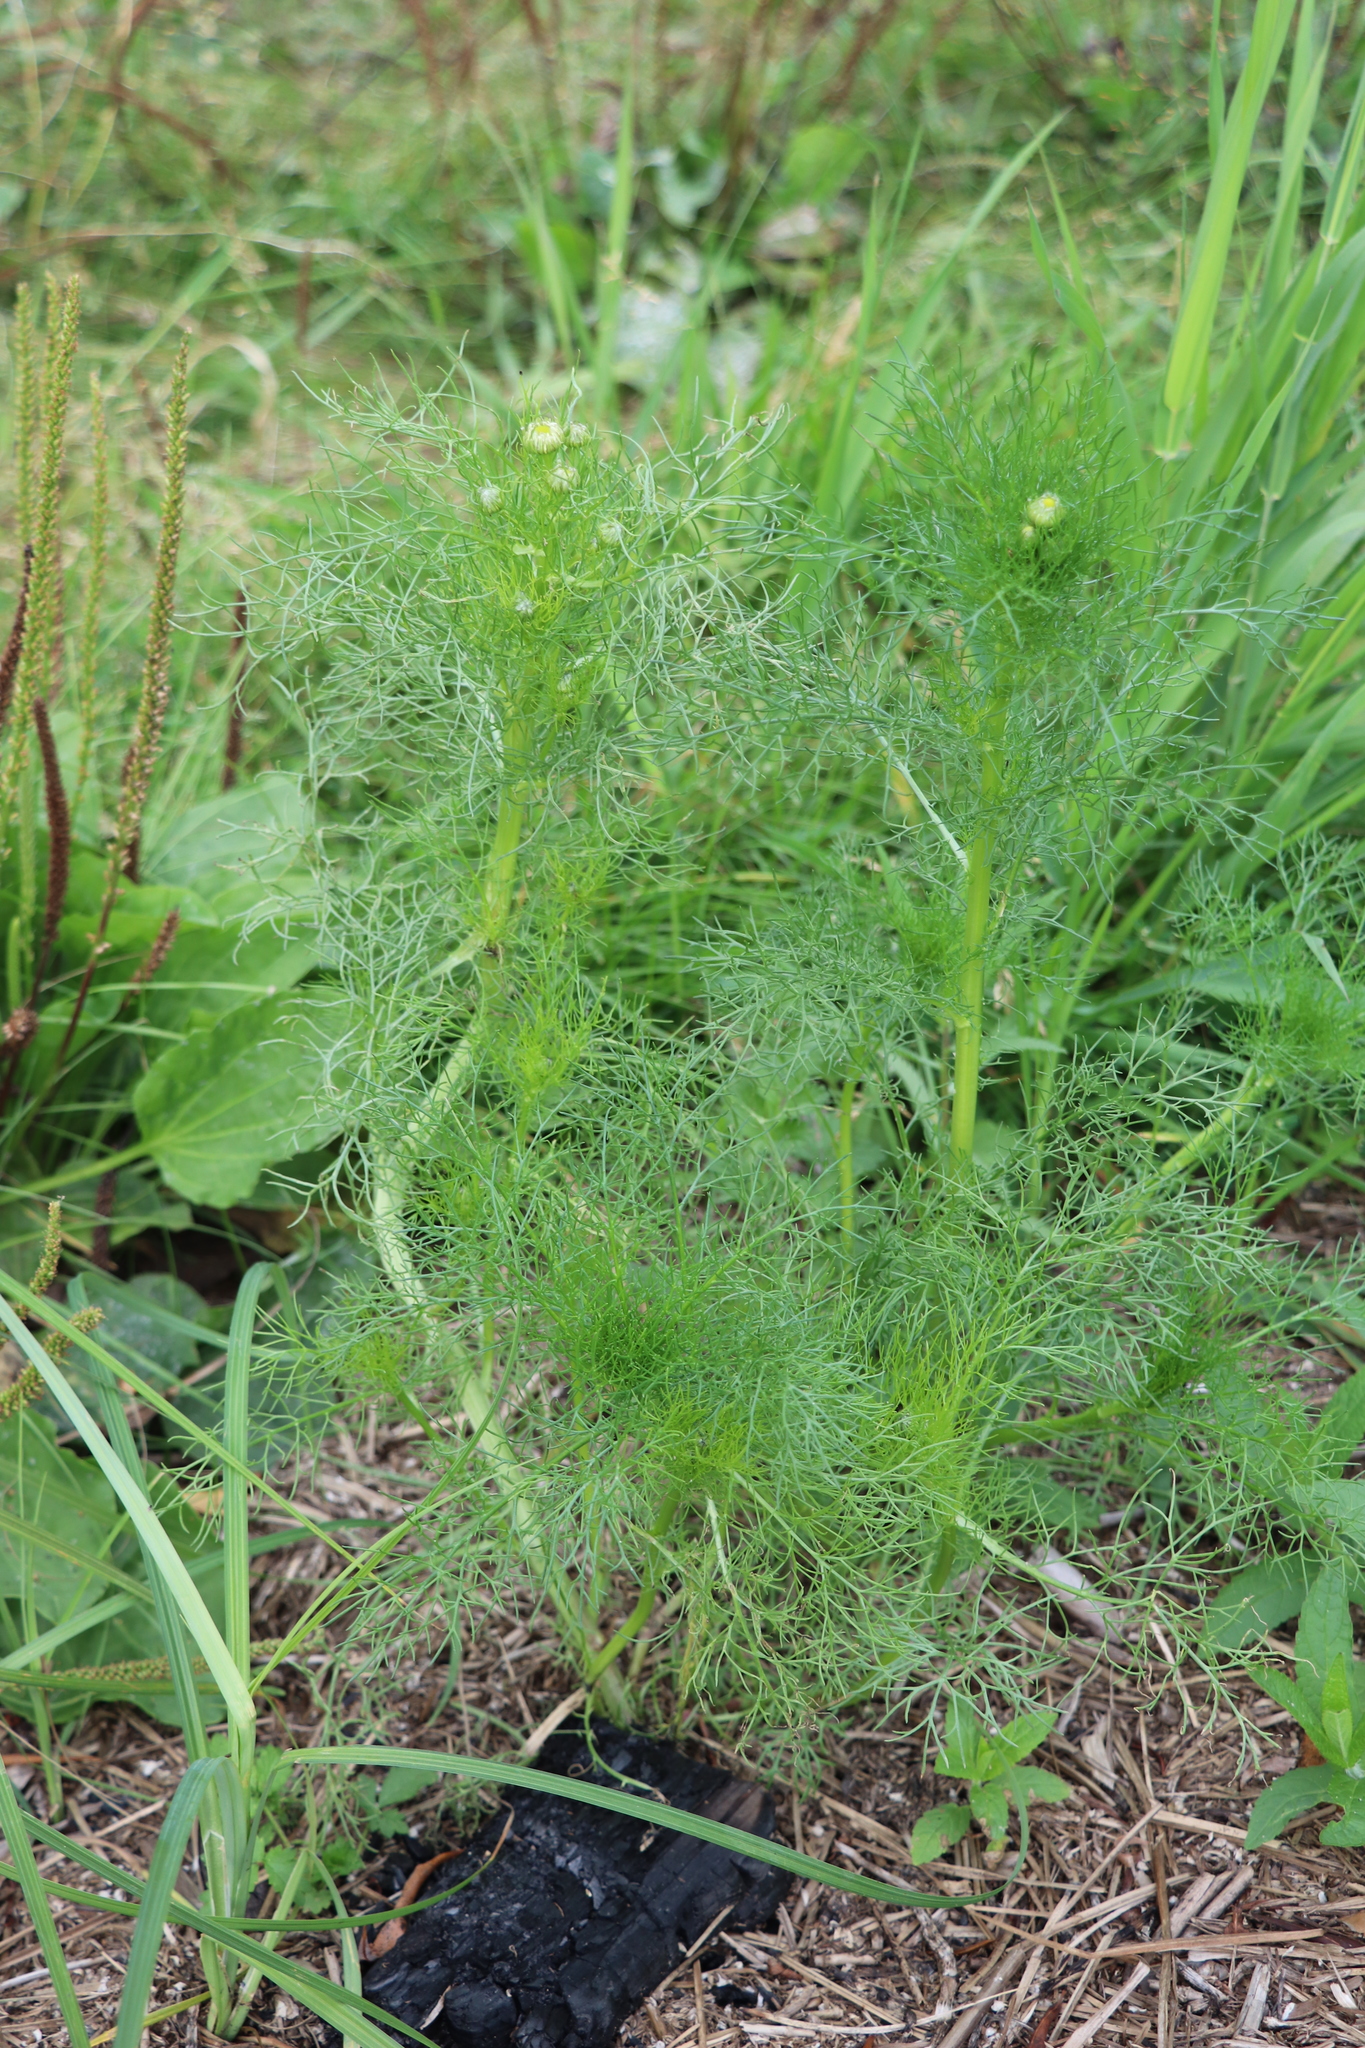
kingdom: Plantae
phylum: Tracheophyta
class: Magnoliopsida
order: Asterales
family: Asteraceae
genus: Tripleurospermum
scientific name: Tripleurospermum inodorum
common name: Scentless mayweed
